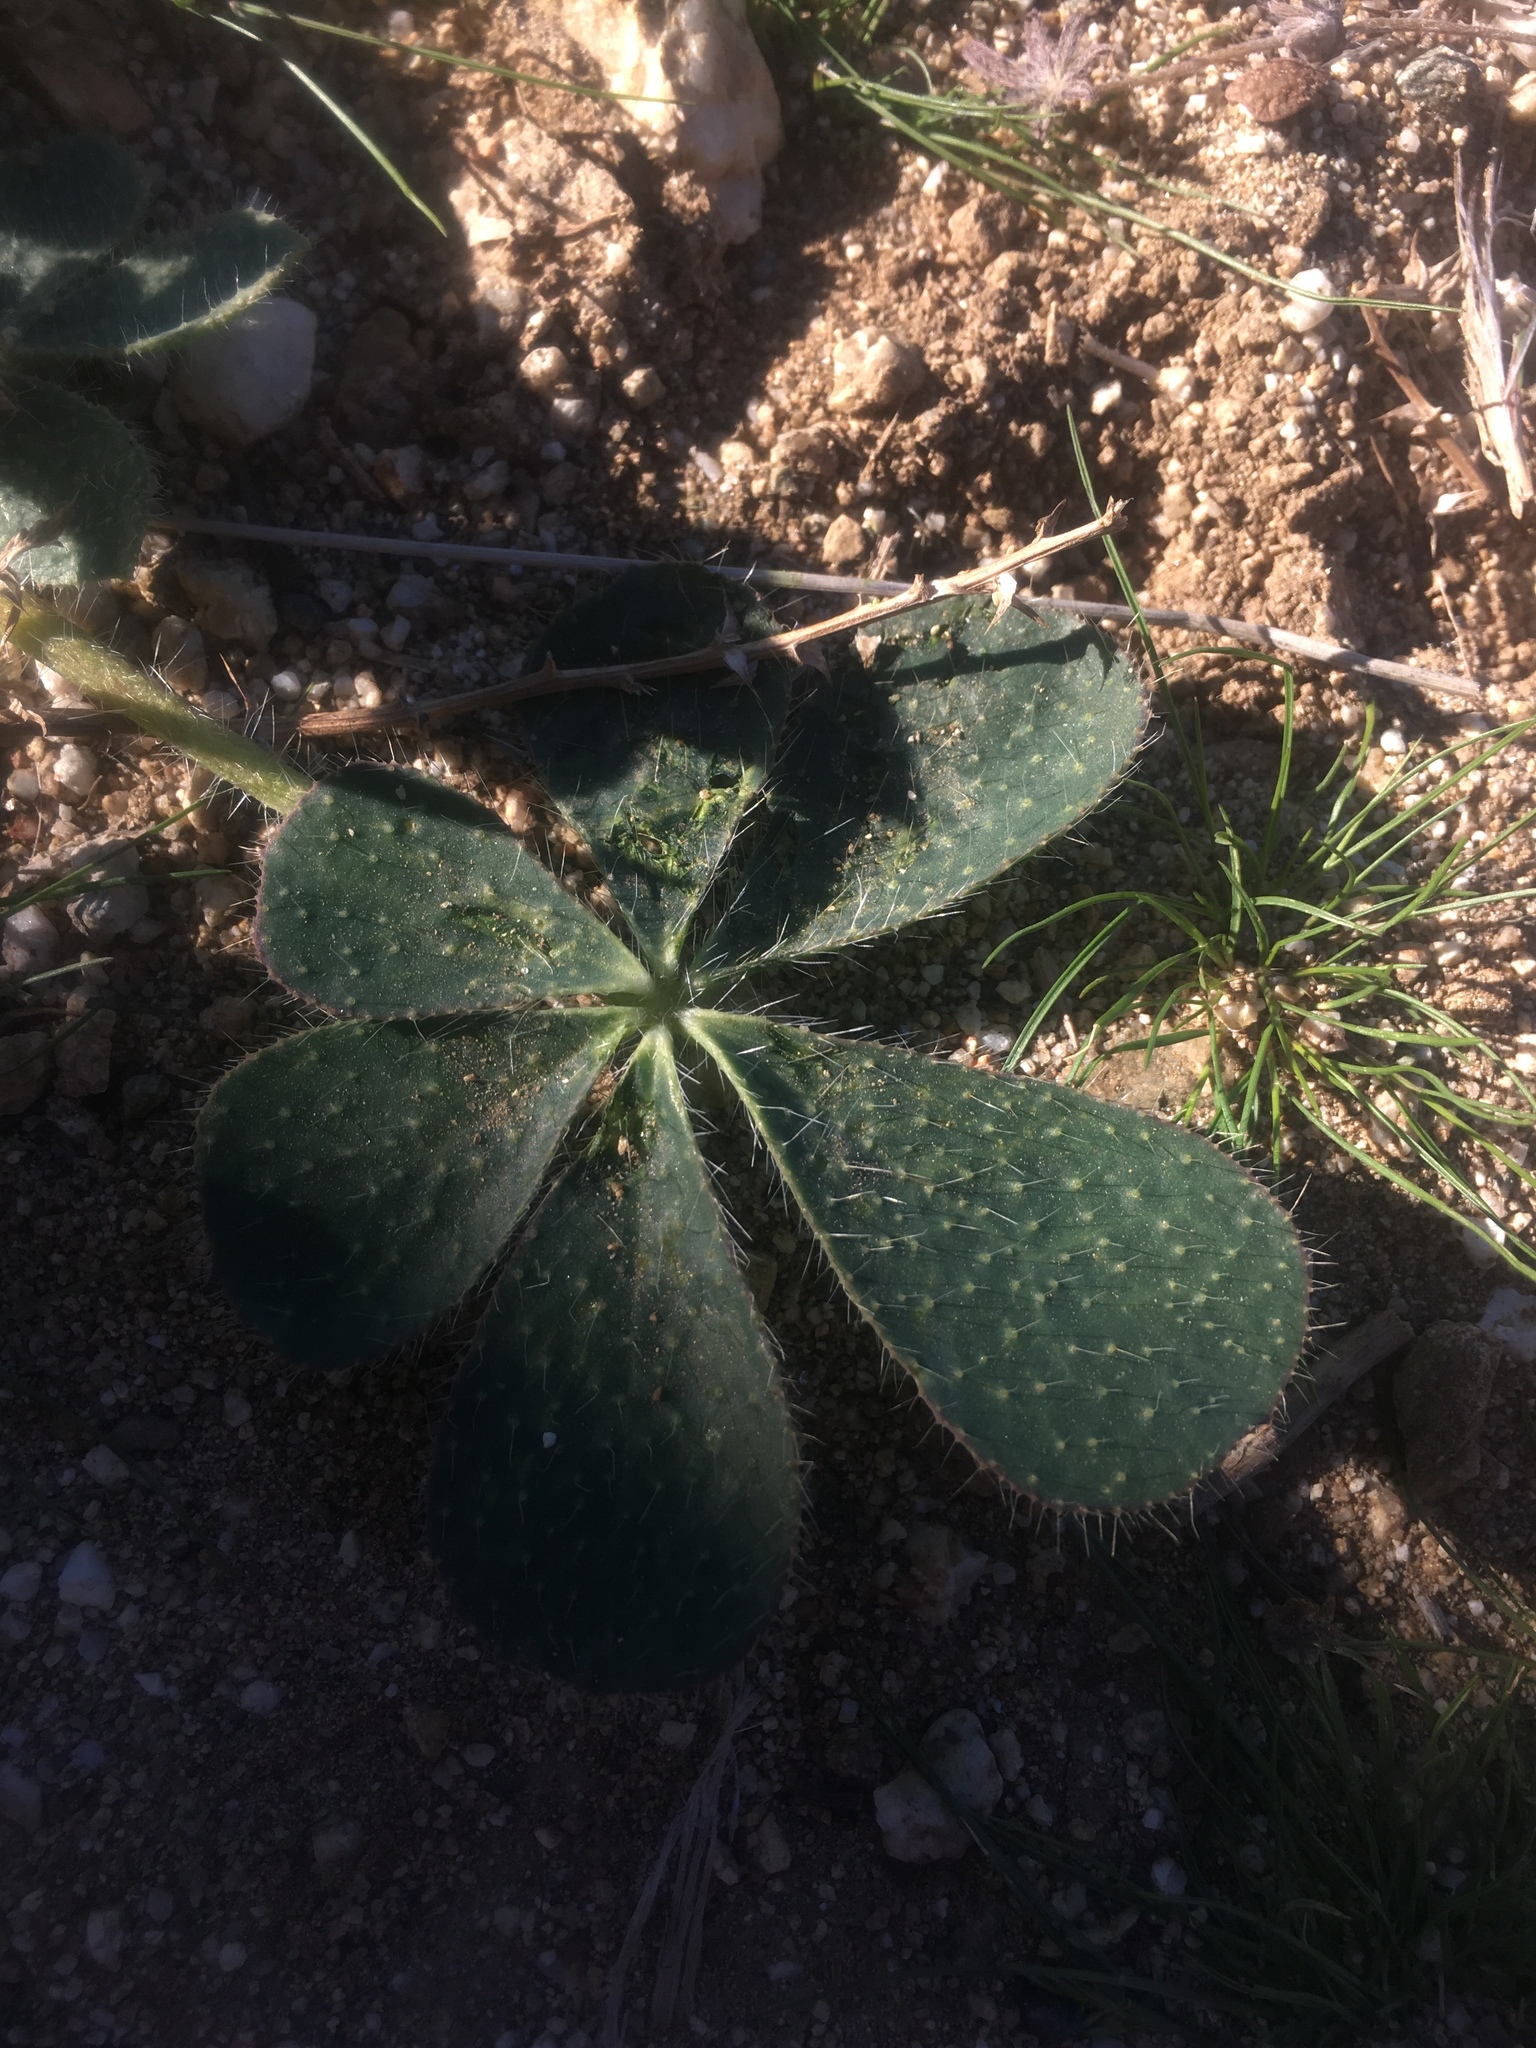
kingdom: Plantae
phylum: Tracheophyta
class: Magnoliopsida
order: Fabales
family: Fabaceae
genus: Lupinus
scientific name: Lupinus hirsutissimus
